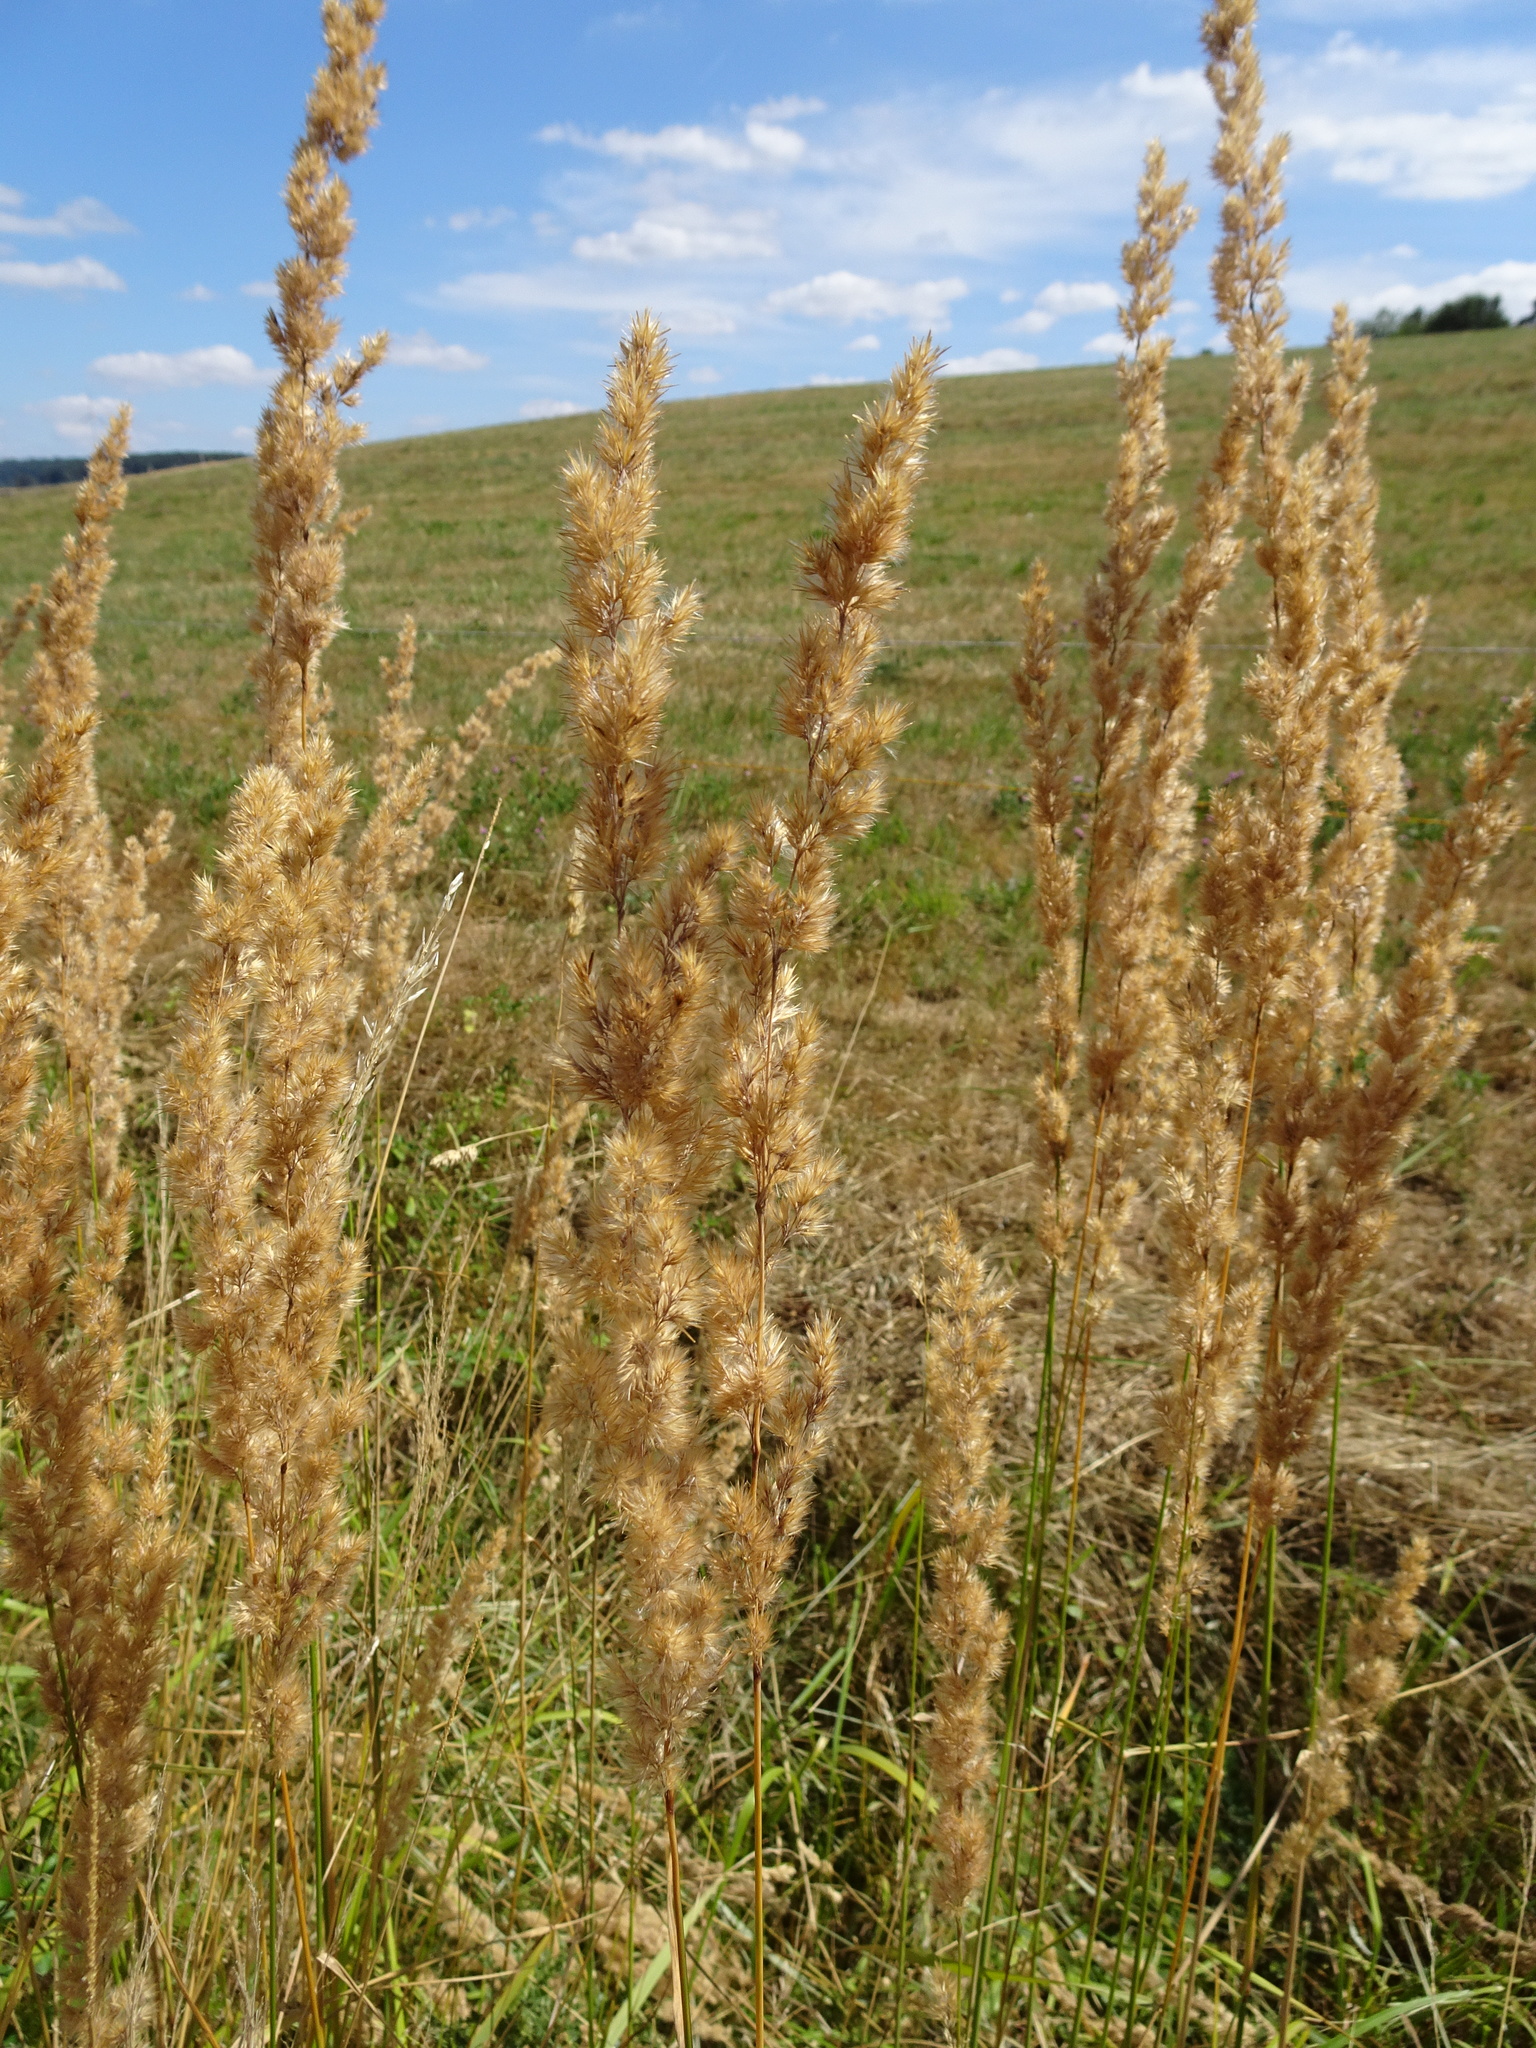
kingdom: Plantae
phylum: Tracheophyta
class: Liliopsida
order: Poales
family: Poaceae
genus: Phalaris
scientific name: Phalaris arundinacea
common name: Reed canary-grass
